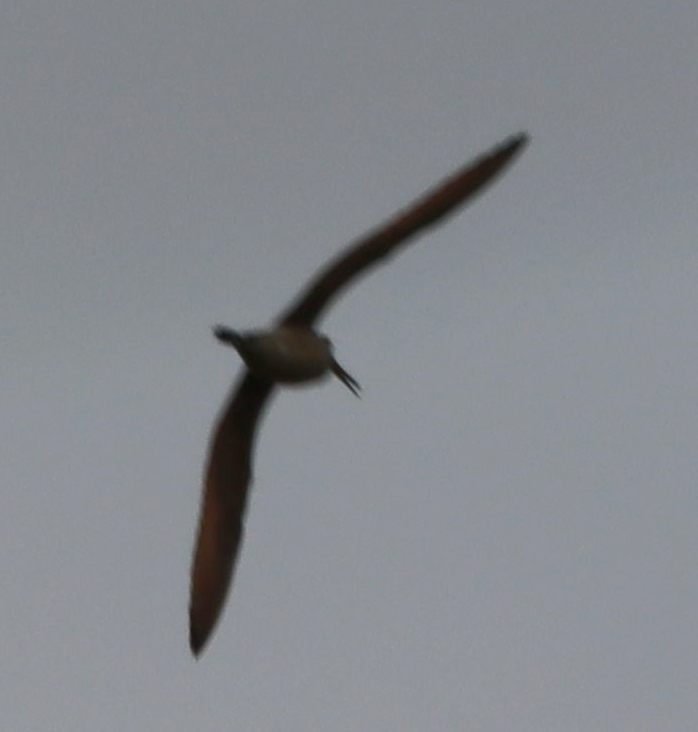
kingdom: Animalia
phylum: Chordata
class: Aves
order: Charadriiformes
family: Scolopacidae
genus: Gallinago
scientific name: Gallinago delicata
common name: Wilson's snipe
